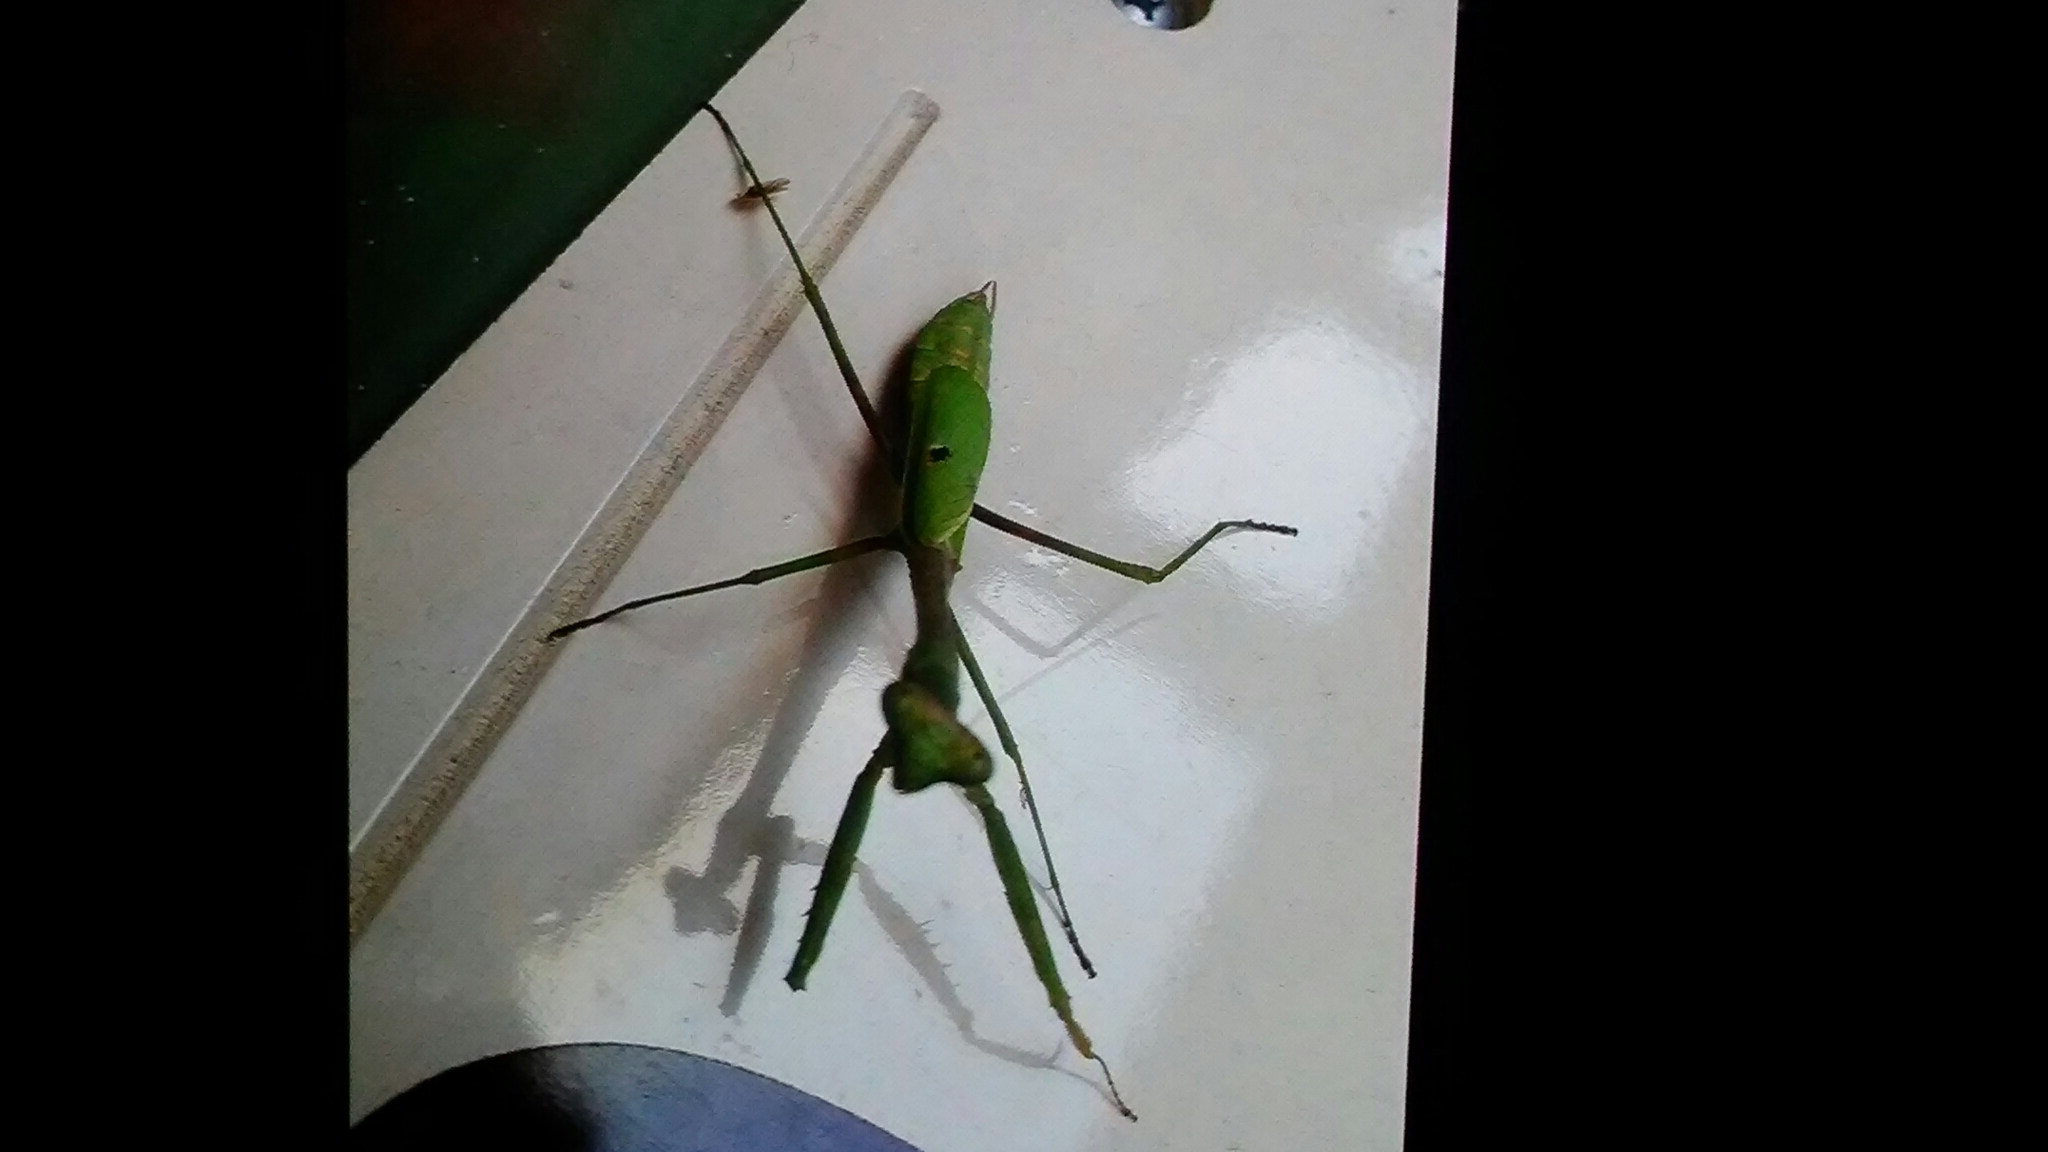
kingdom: Animalia
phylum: Arthropoda
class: Insecta
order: Mantodea
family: Mantidae
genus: Stagmomantis
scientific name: Stagmomantis carolina
